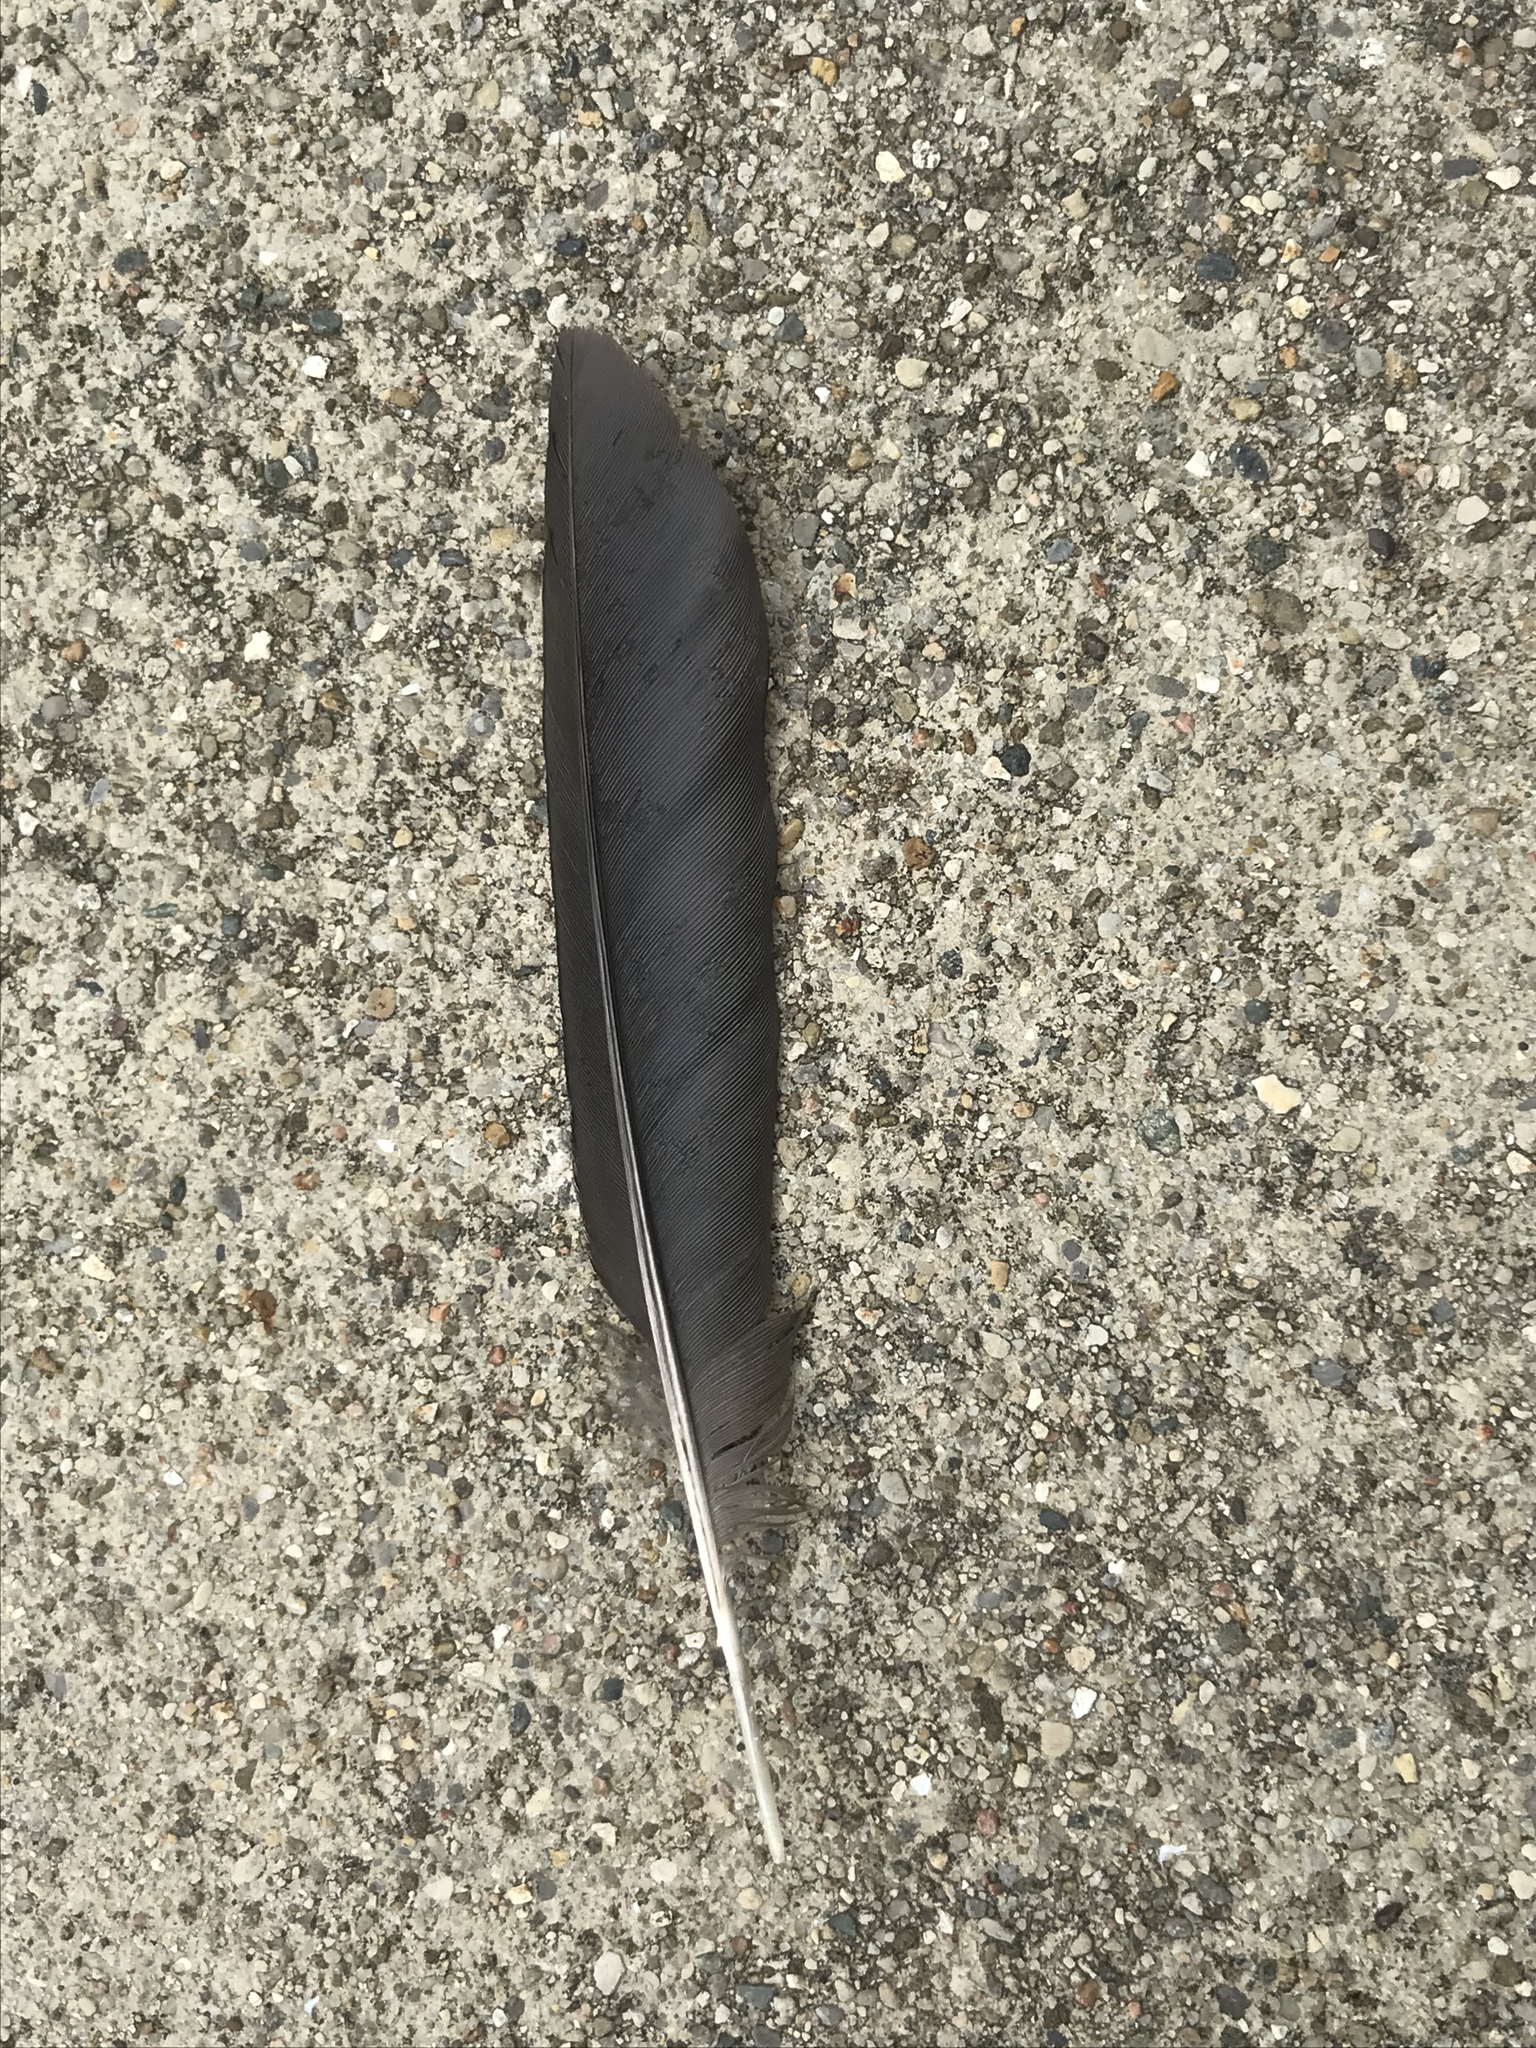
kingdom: Animalia
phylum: Chordata
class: Aves
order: Passeriformes
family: Corvidae
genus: Corvus
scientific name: Corvus
